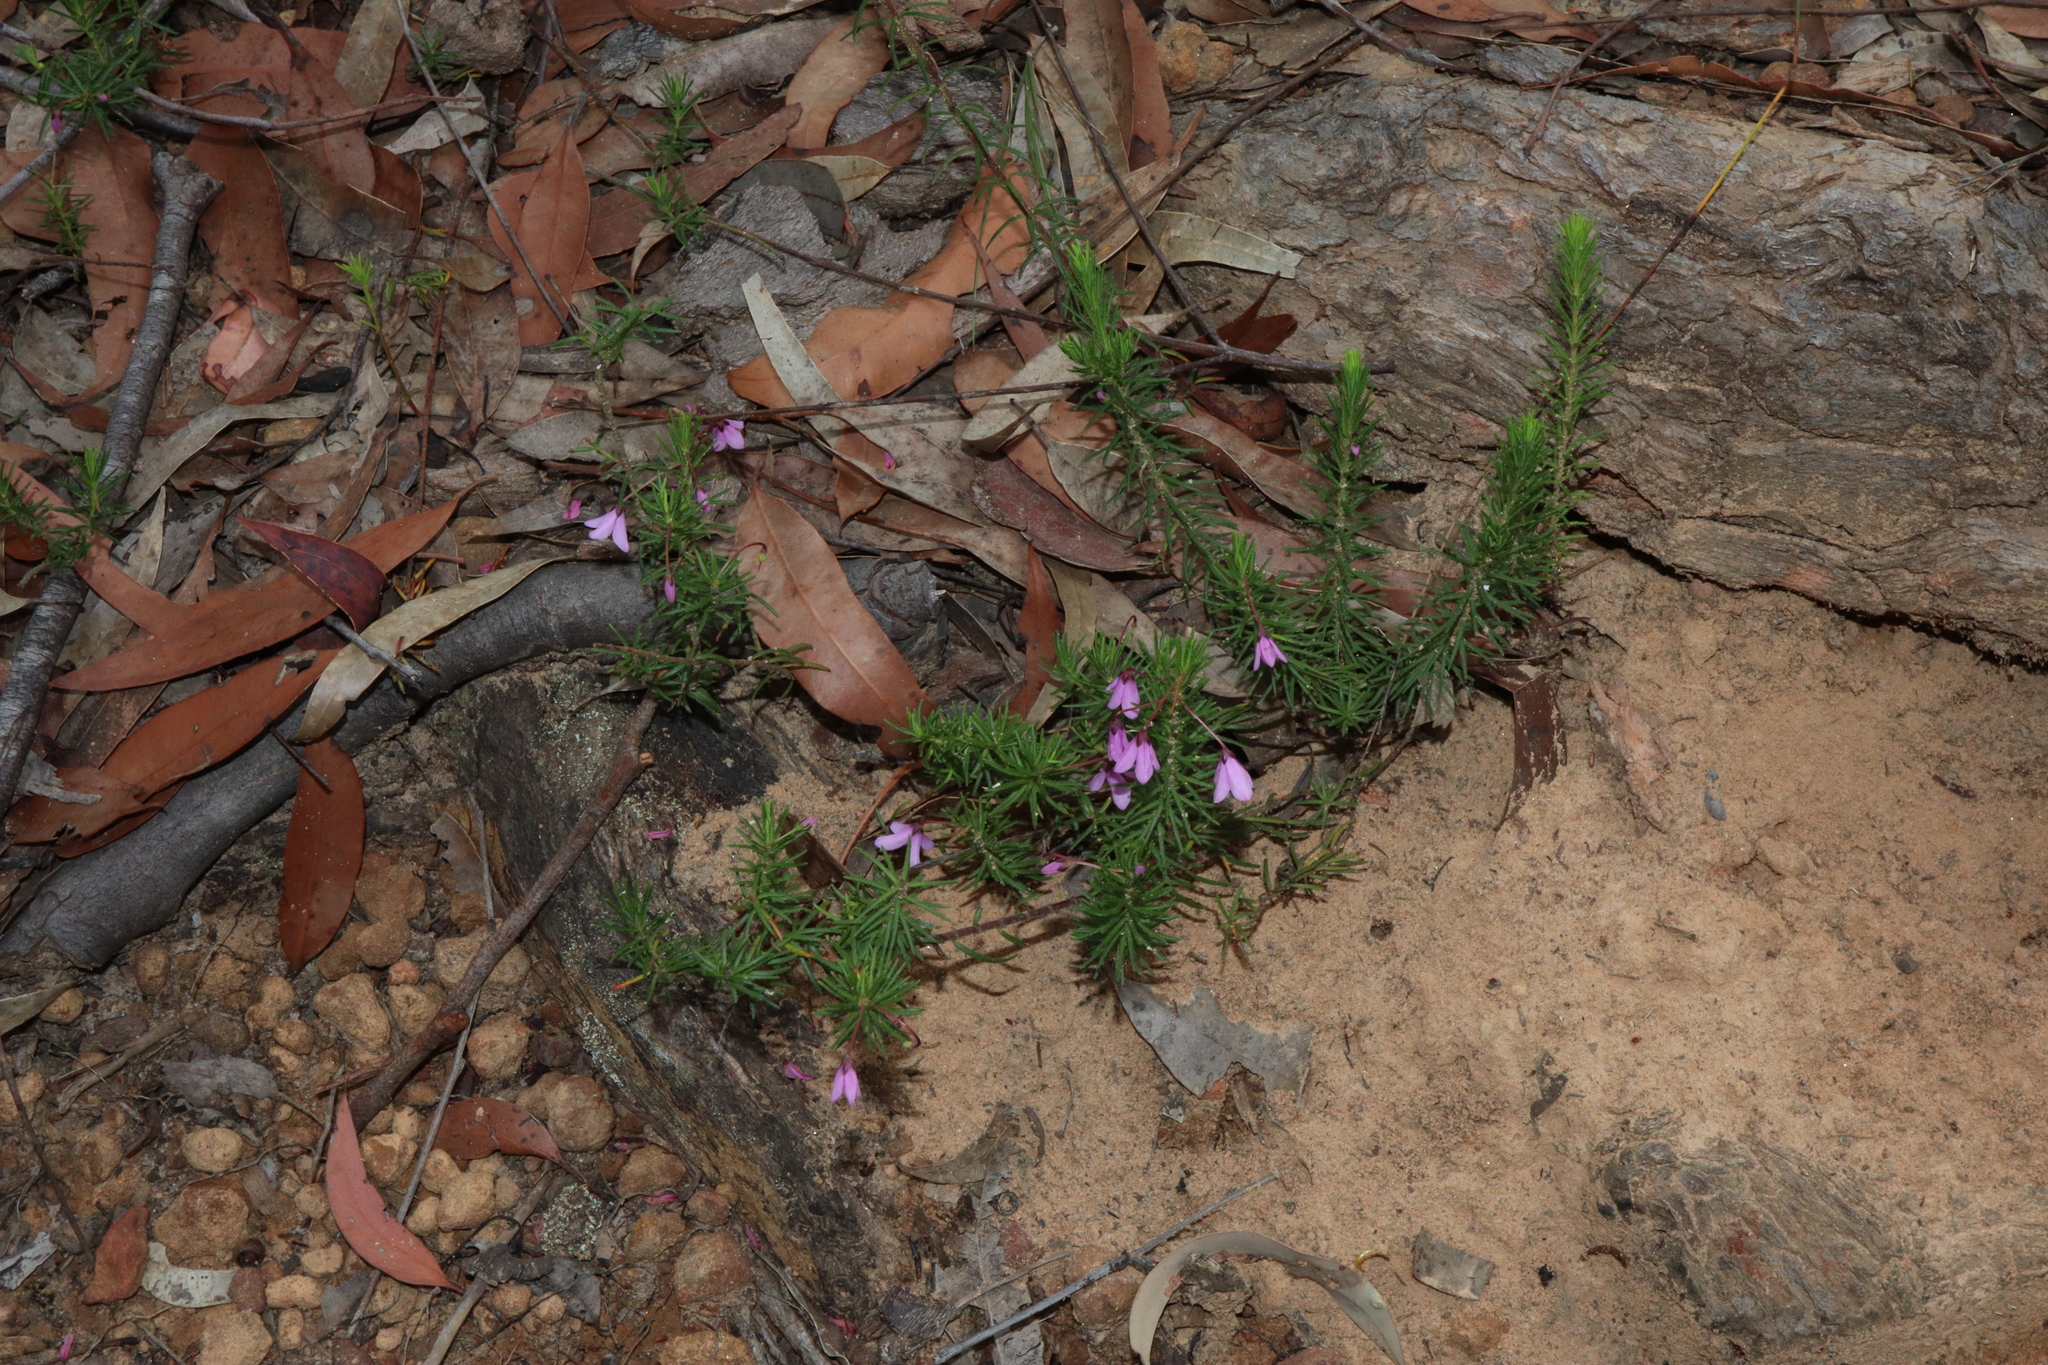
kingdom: Plantae
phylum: Tracheophyta
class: Magnoliopsida
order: Oxalidales
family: Elaeocarpaceae
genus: Tetratheca
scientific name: Tetratheca neglecta
